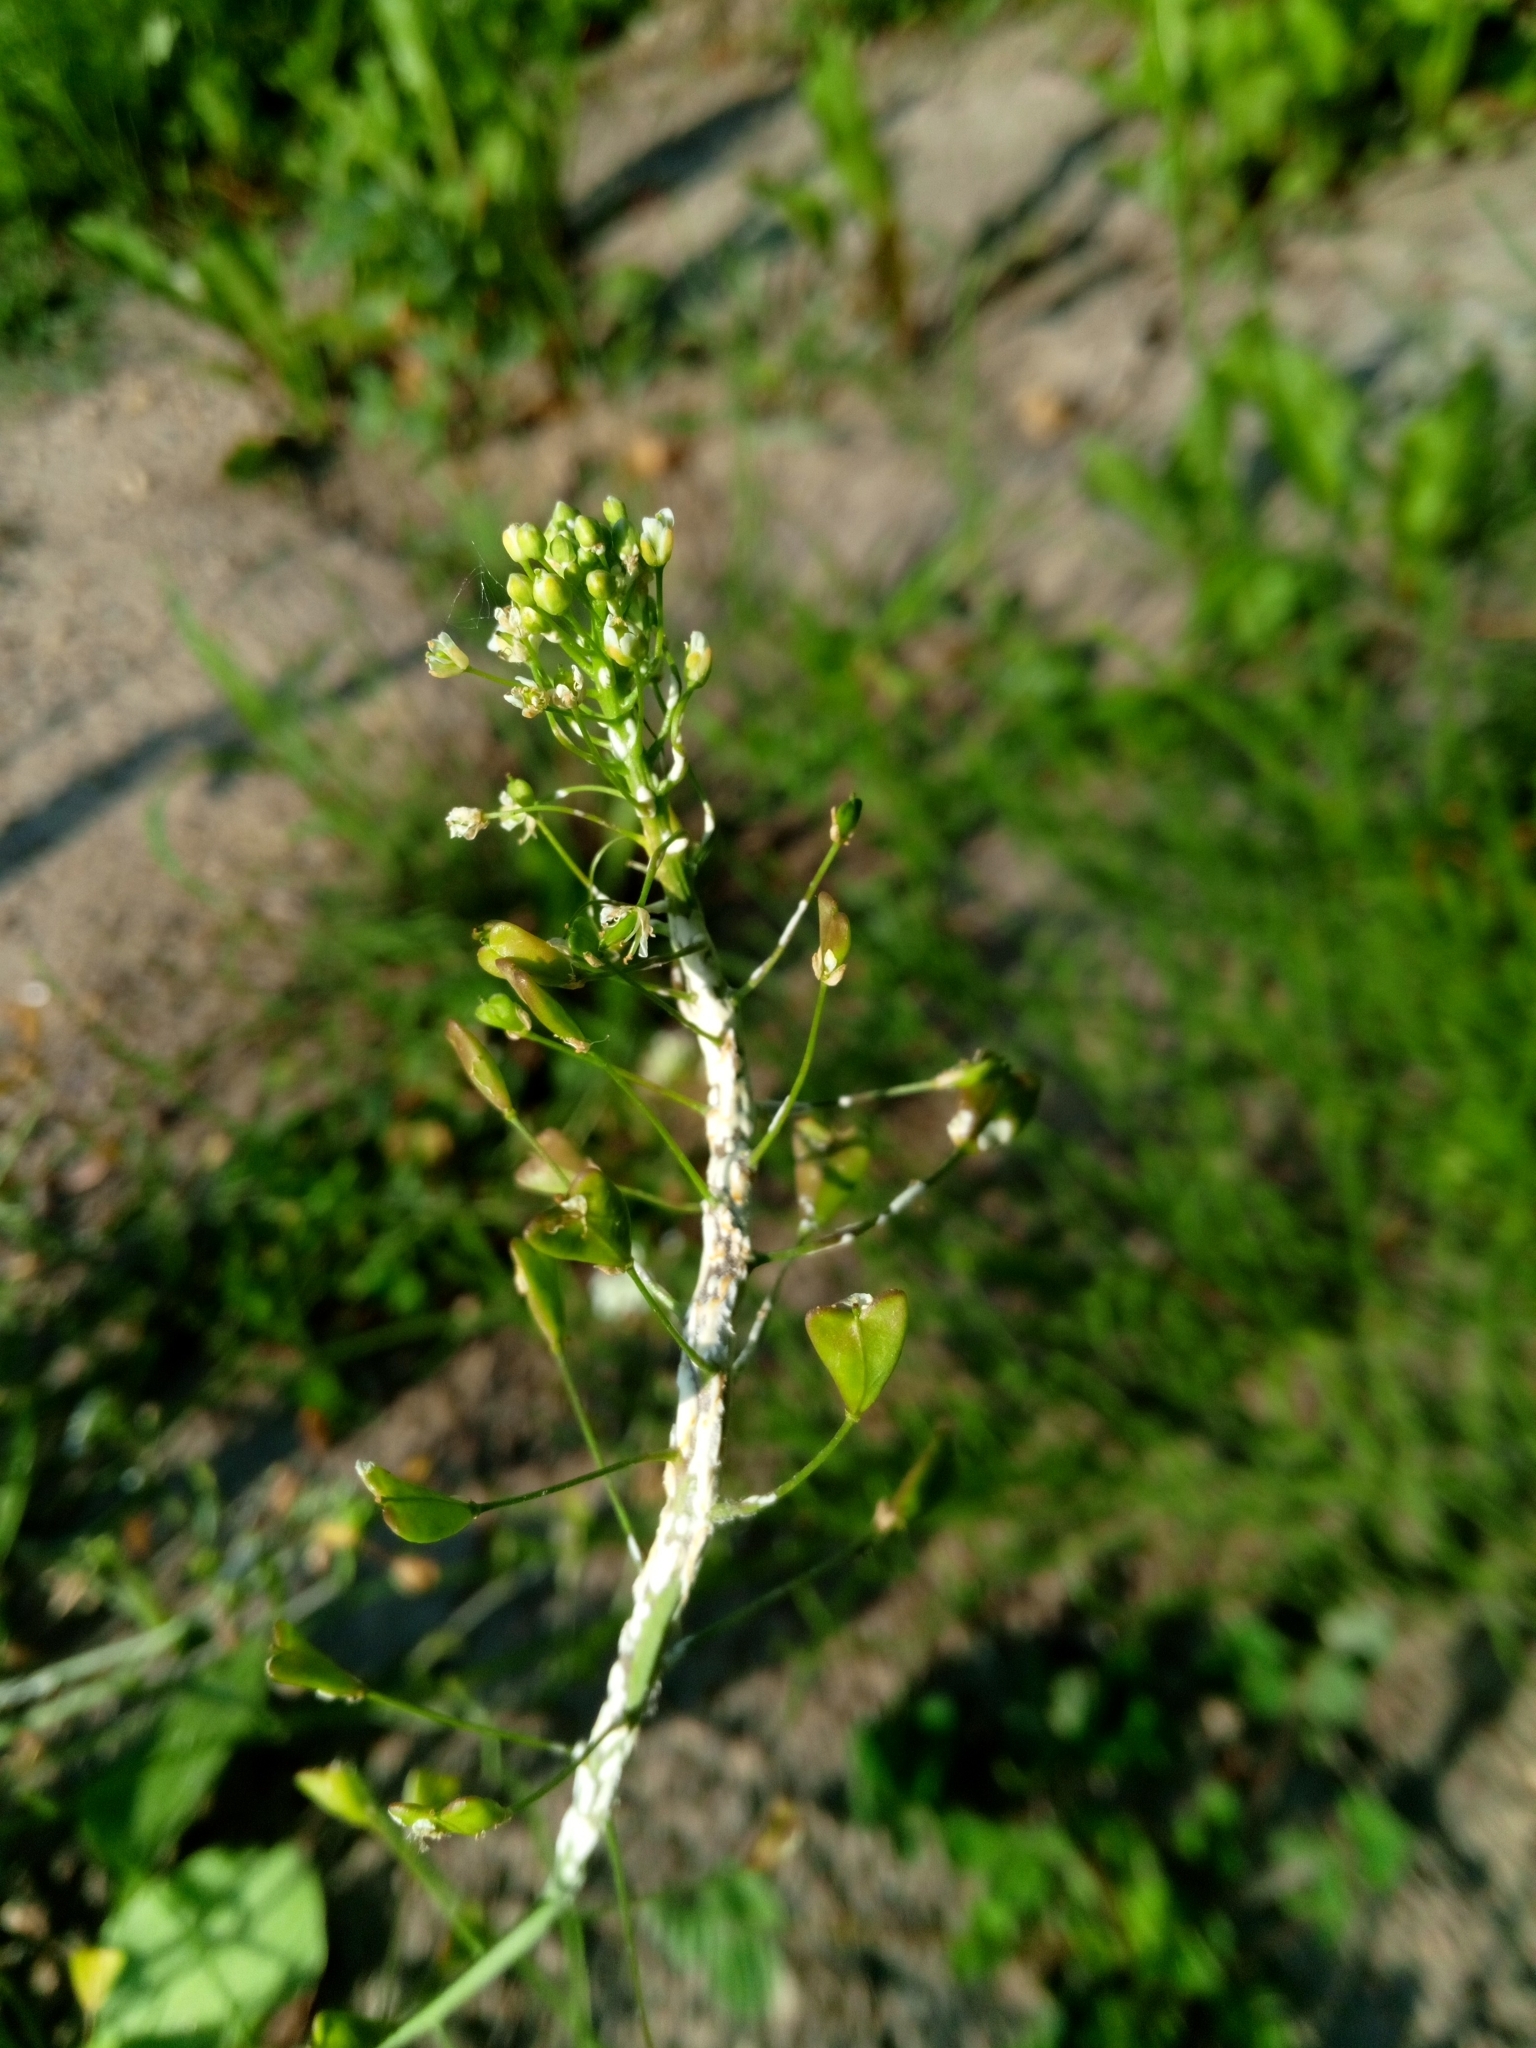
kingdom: Plantae
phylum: Tracheophyta
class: Magnoliopsida
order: Brassicales
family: Brassicaceae
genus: Capsella
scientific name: Capsella bursa-pastoris
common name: Shepherd's purse
